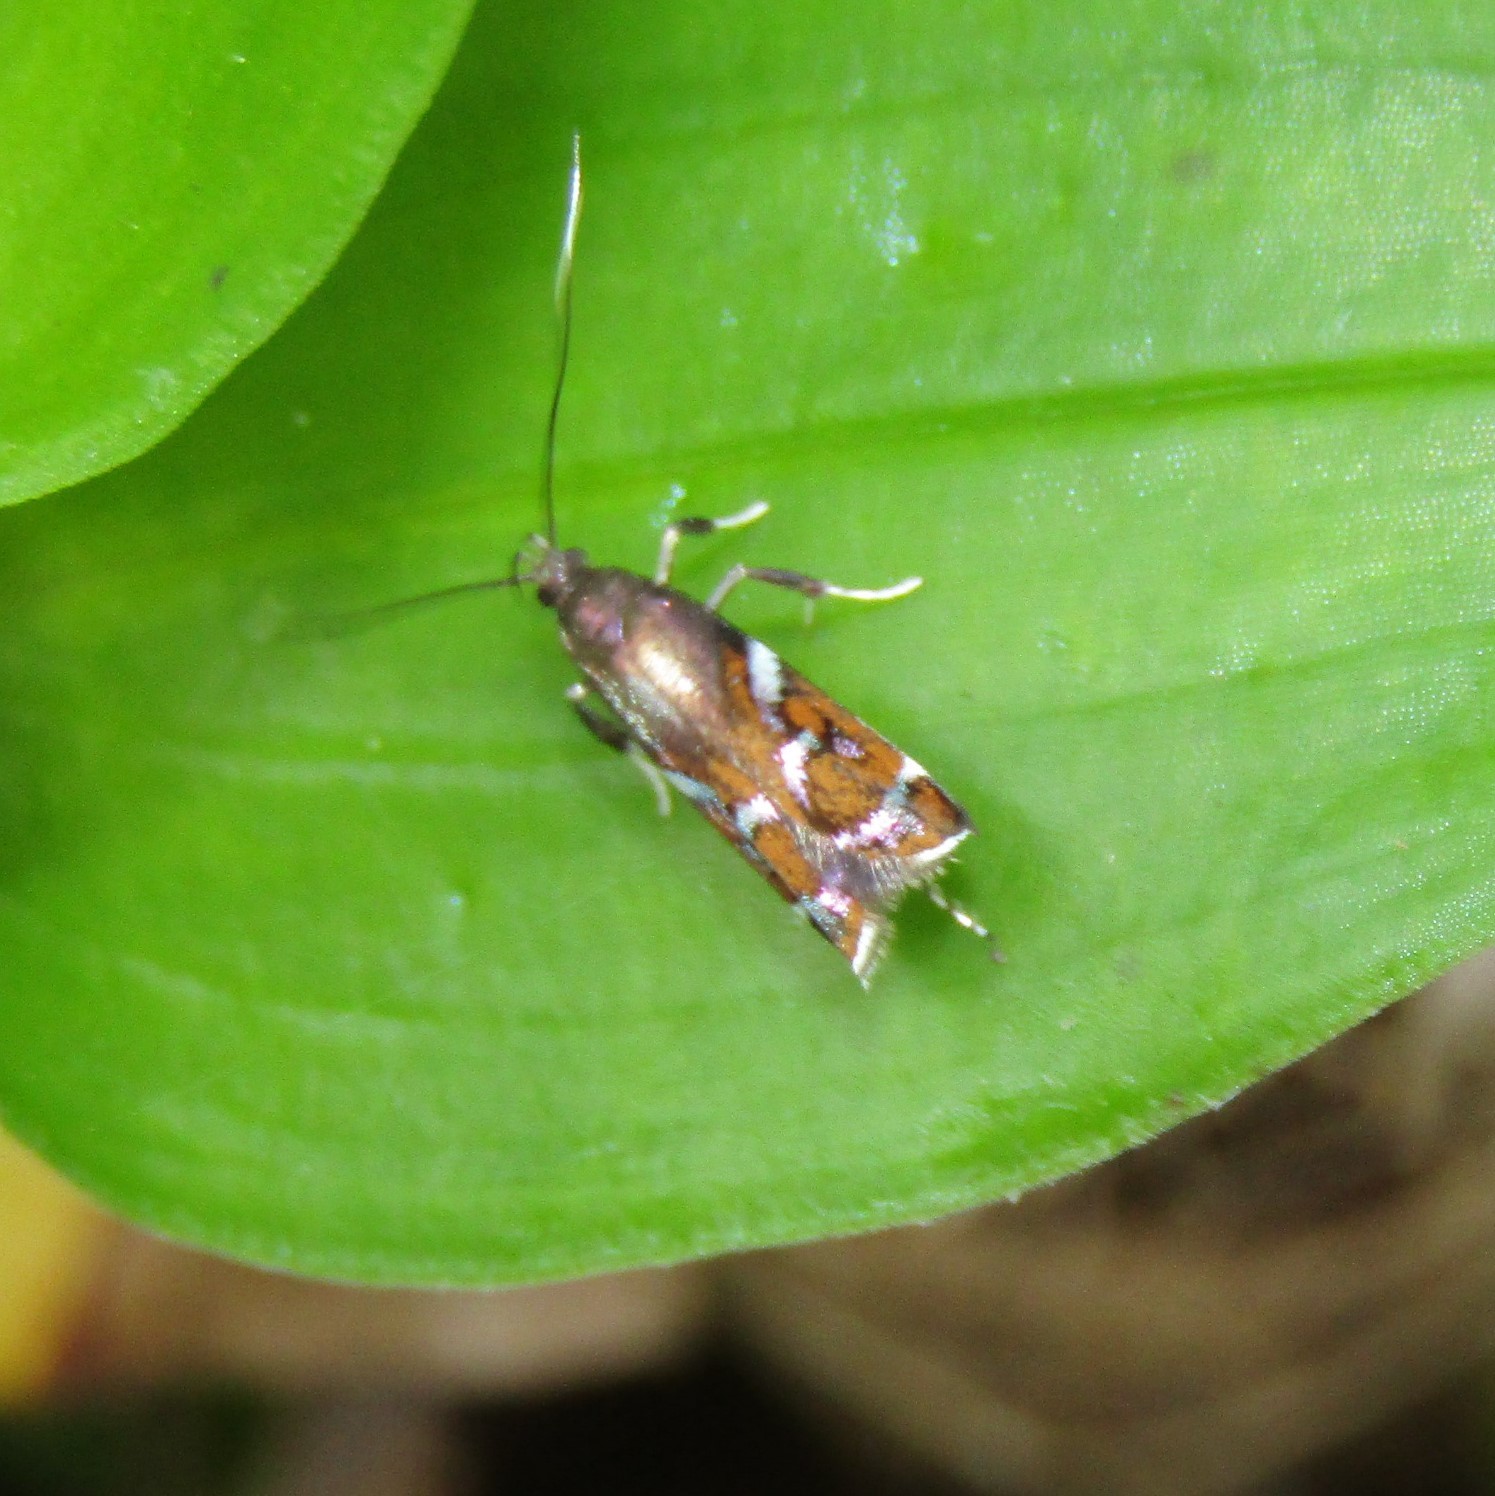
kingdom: Animalia
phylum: Arthropoda
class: Insecta
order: Lepidoptera
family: Depressariidae
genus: Compsistis
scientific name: Compsistis bifaciella
